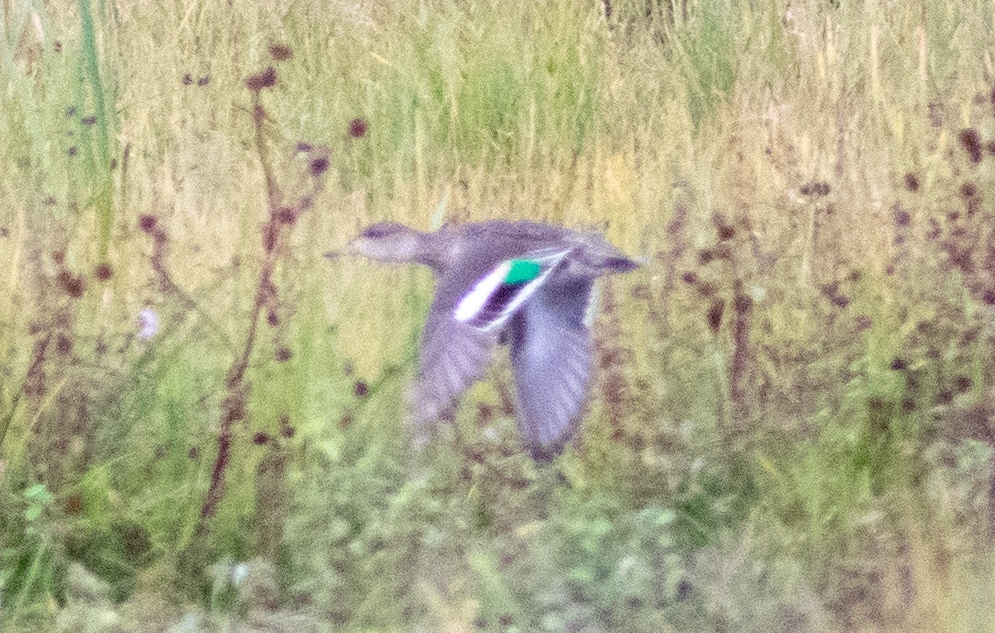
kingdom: Animalia
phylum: Chordata
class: Aves
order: Anseriformes
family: Anatidae
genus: Anas
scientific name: Anas crecca
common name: Eurasian teal
